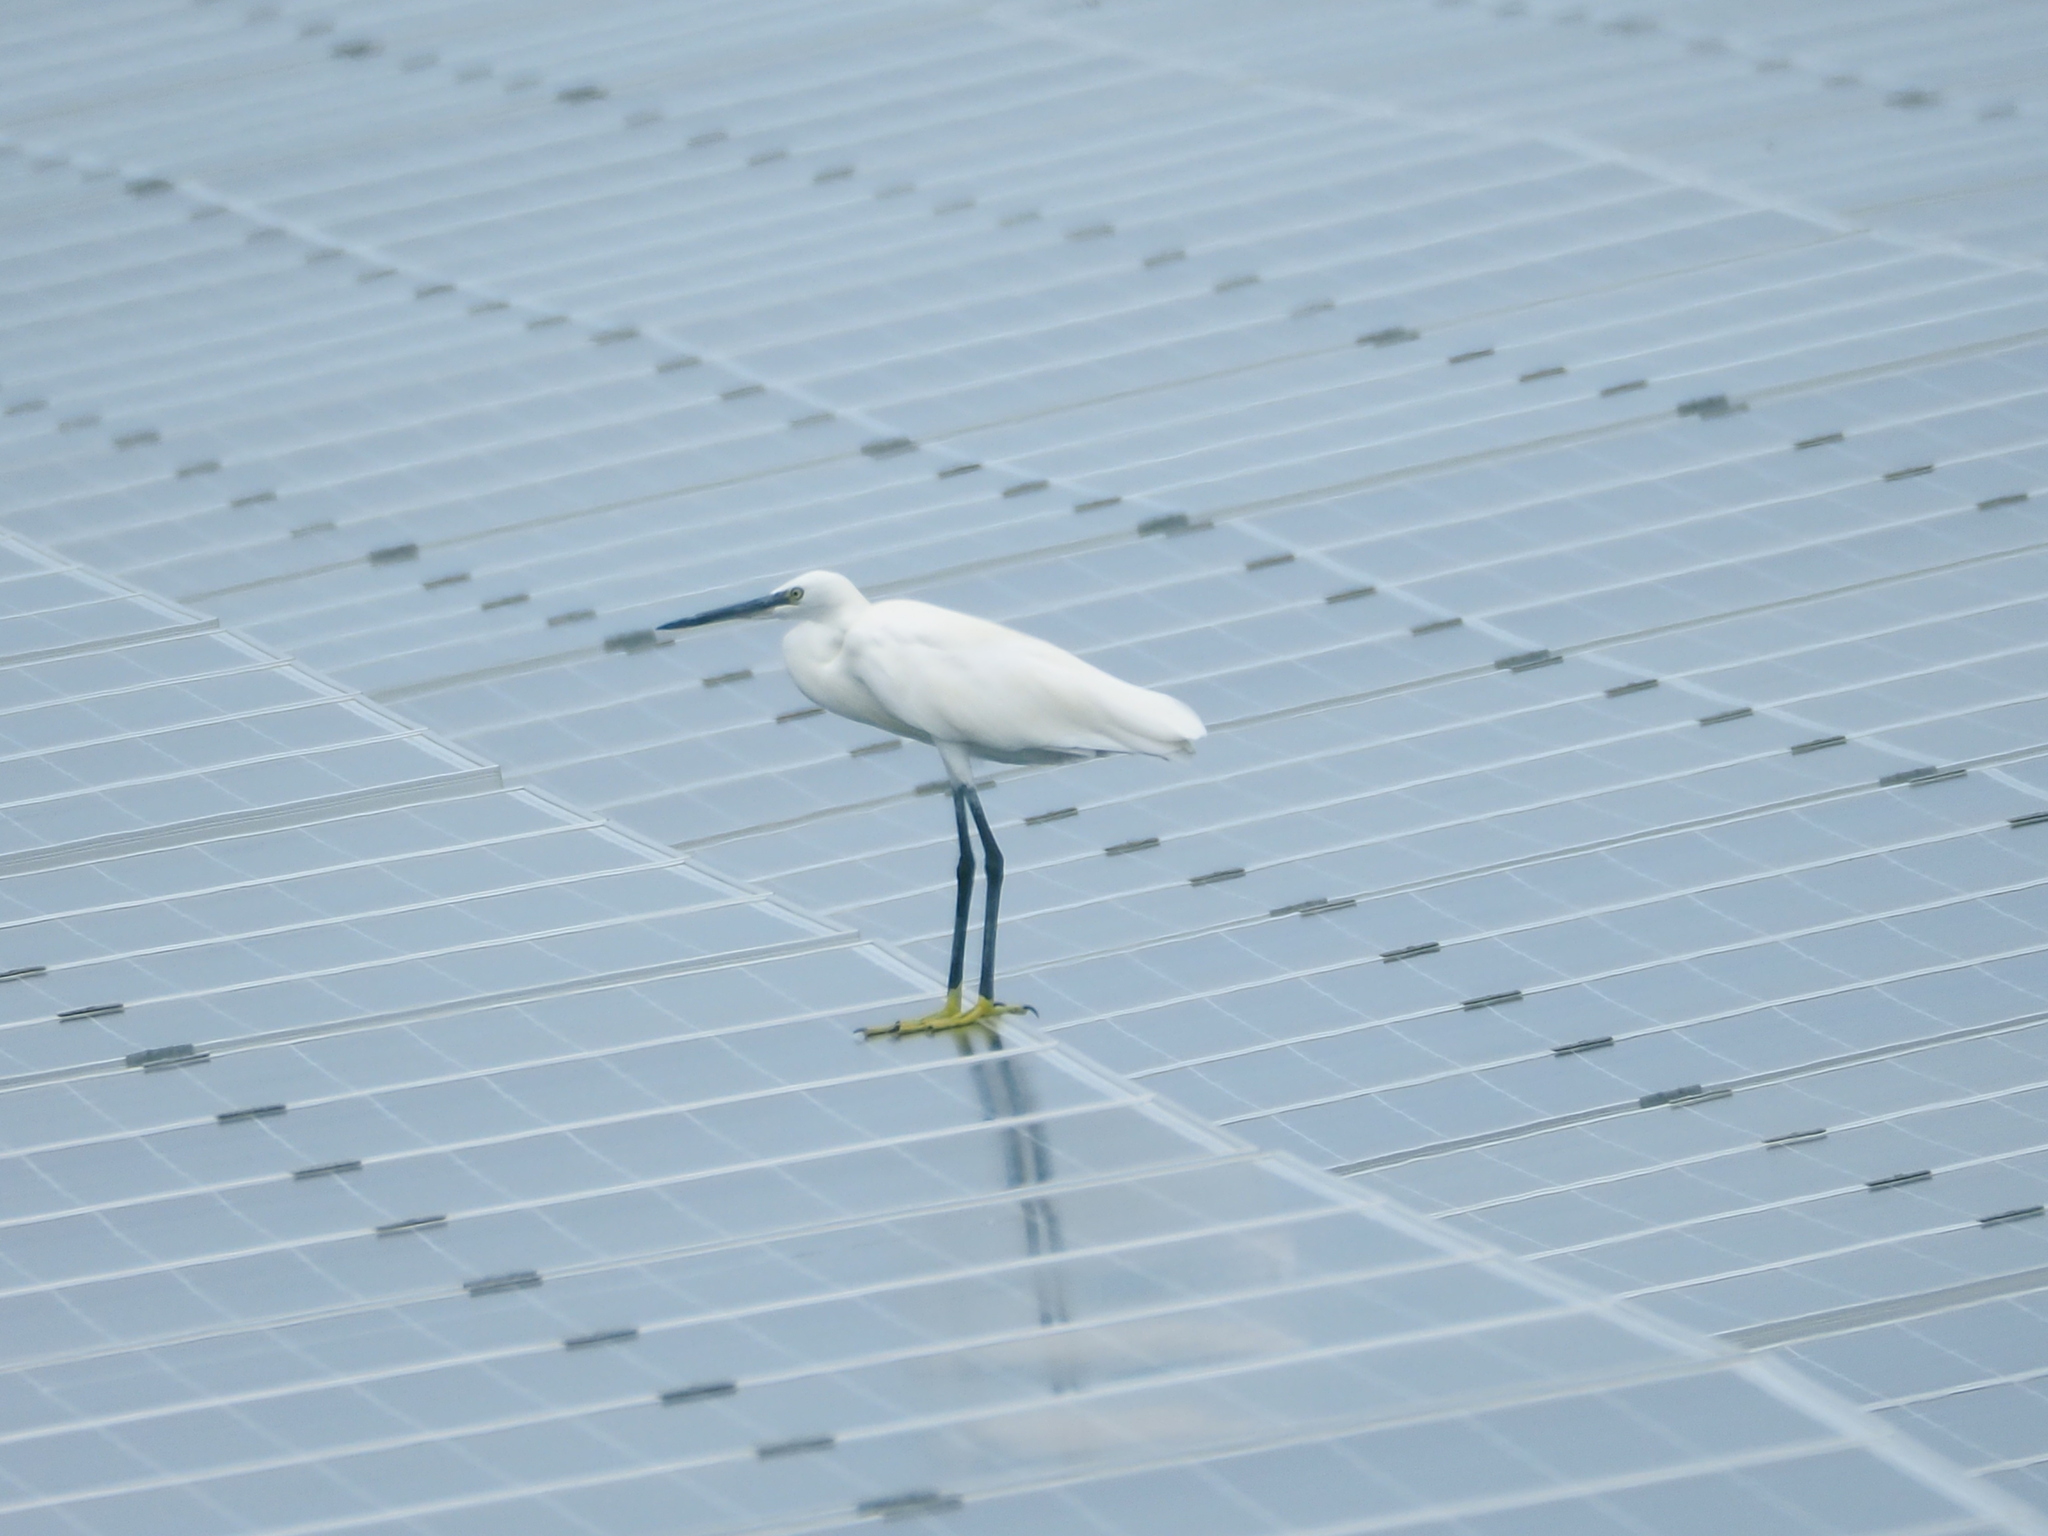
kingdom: Animalia
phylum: Chordata
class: Aves
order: Pelecaniformes
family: Ardeidae
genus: Egretta
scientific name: Egretta garzetta
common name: Little egret
